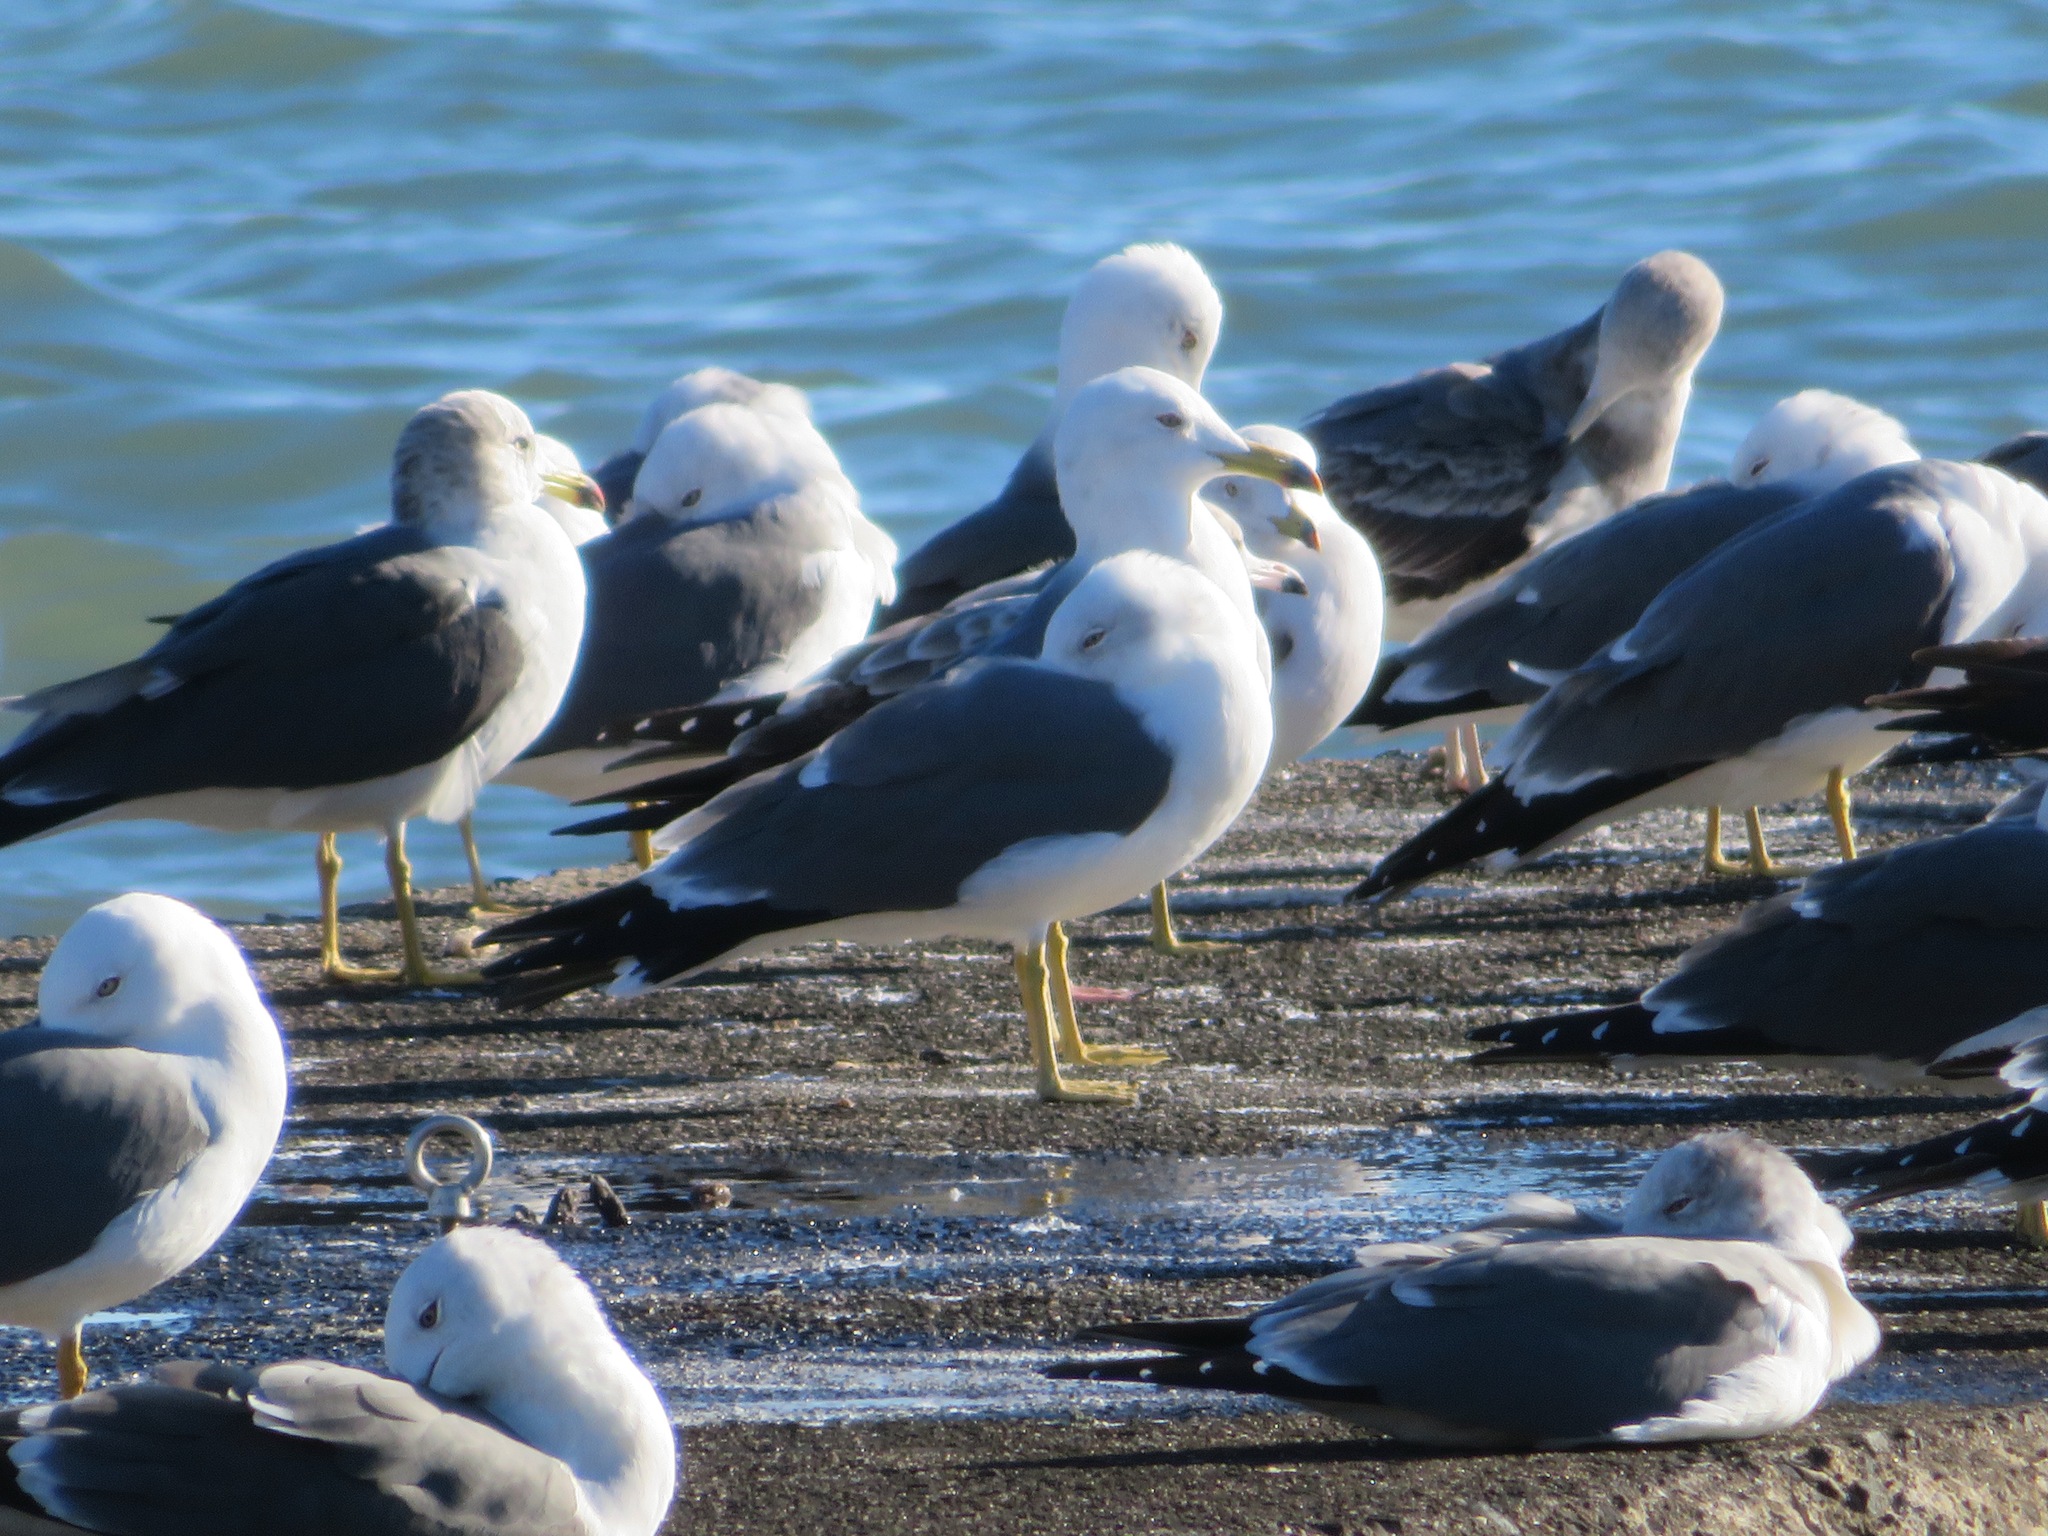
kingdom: Animalia
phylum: Chordata
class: Aves
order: Charadriiformes
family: Laridae
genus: Larus
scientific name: Larus crassirostris
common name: Black-tailed gull
